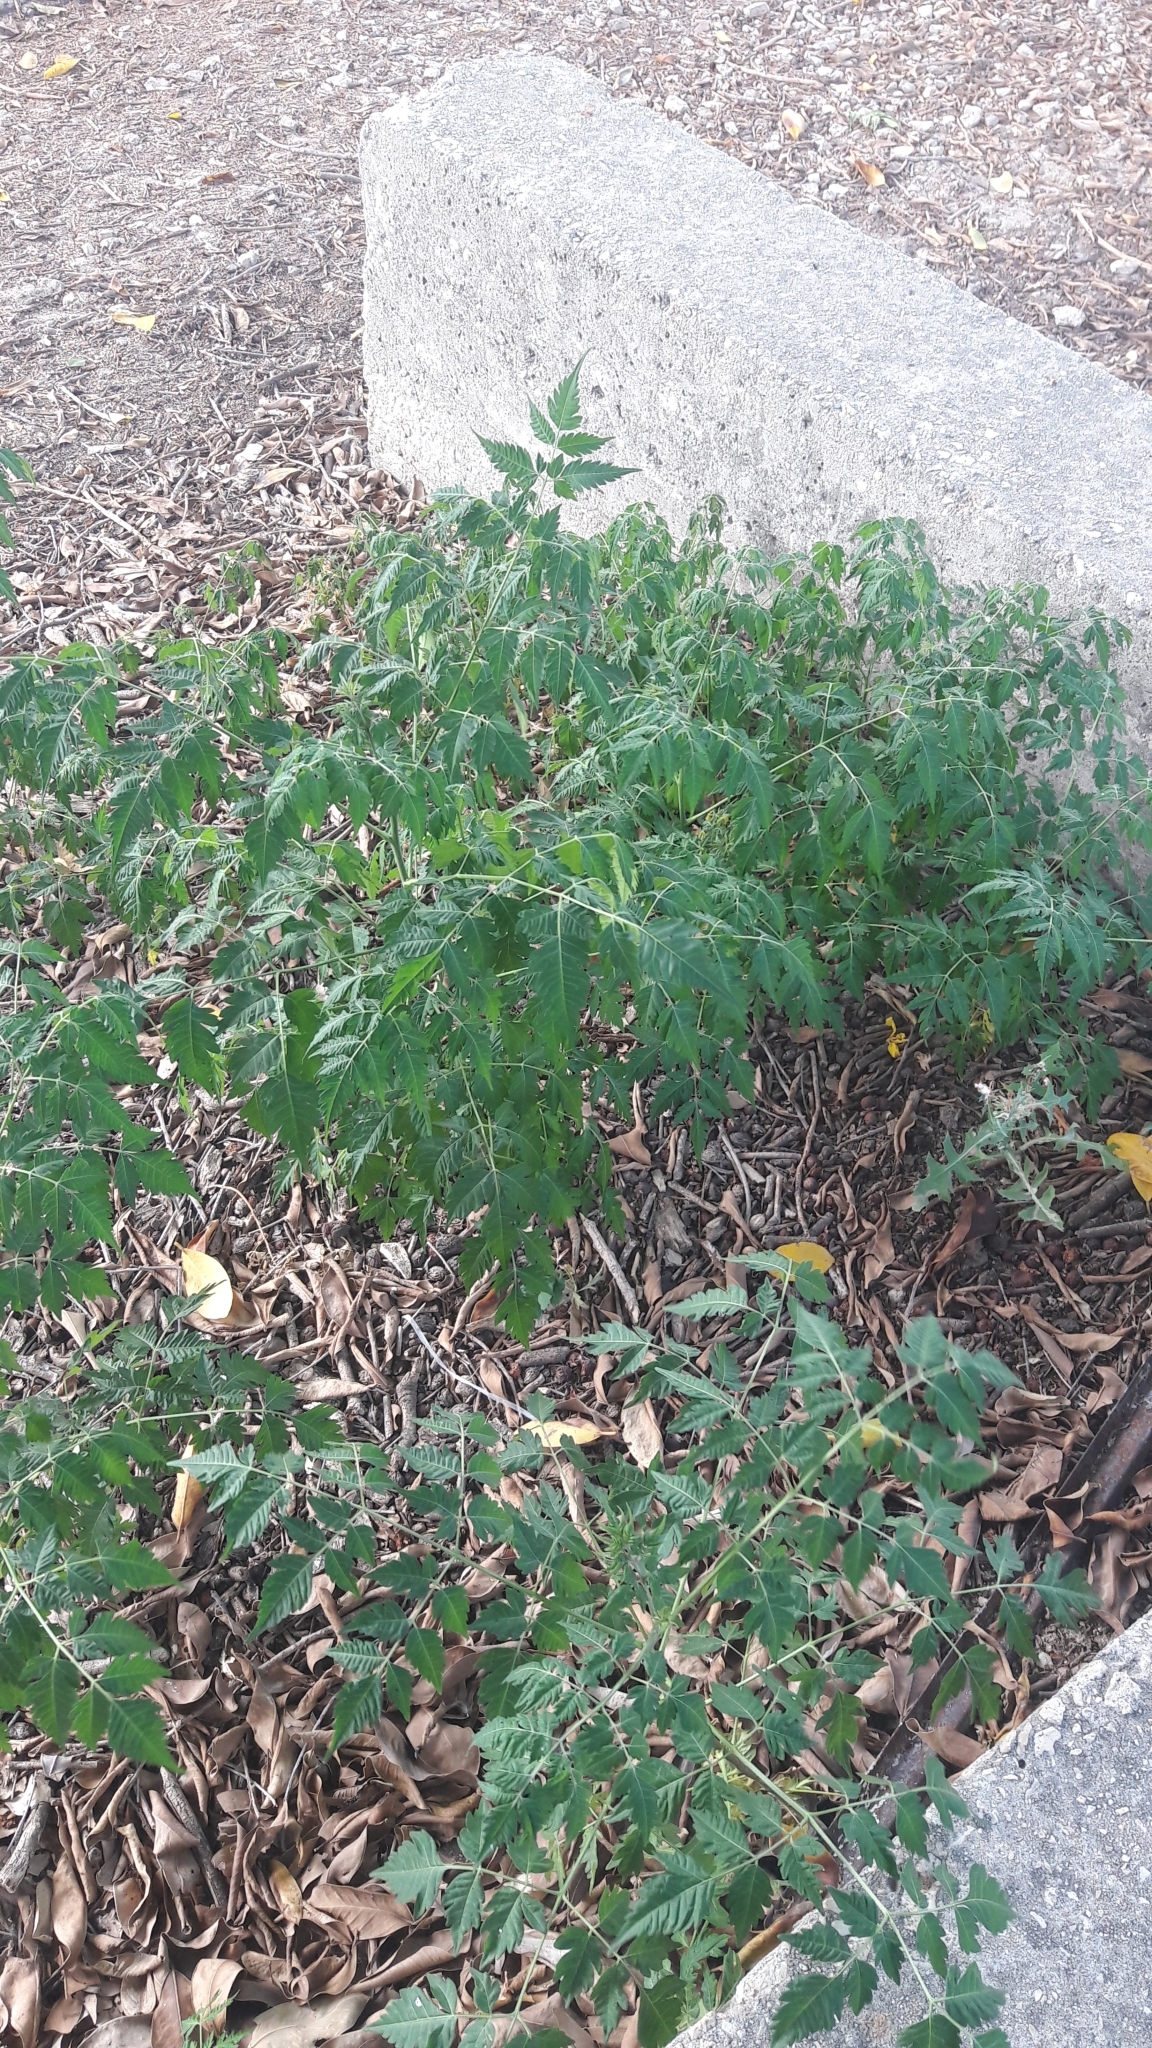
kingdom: Plantae
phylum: Tracheophyta
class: Magnoliopsida
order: Sapindales
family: Meliaceae
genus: Melia
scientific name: Melia azedarach
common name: Chinaberrytree
